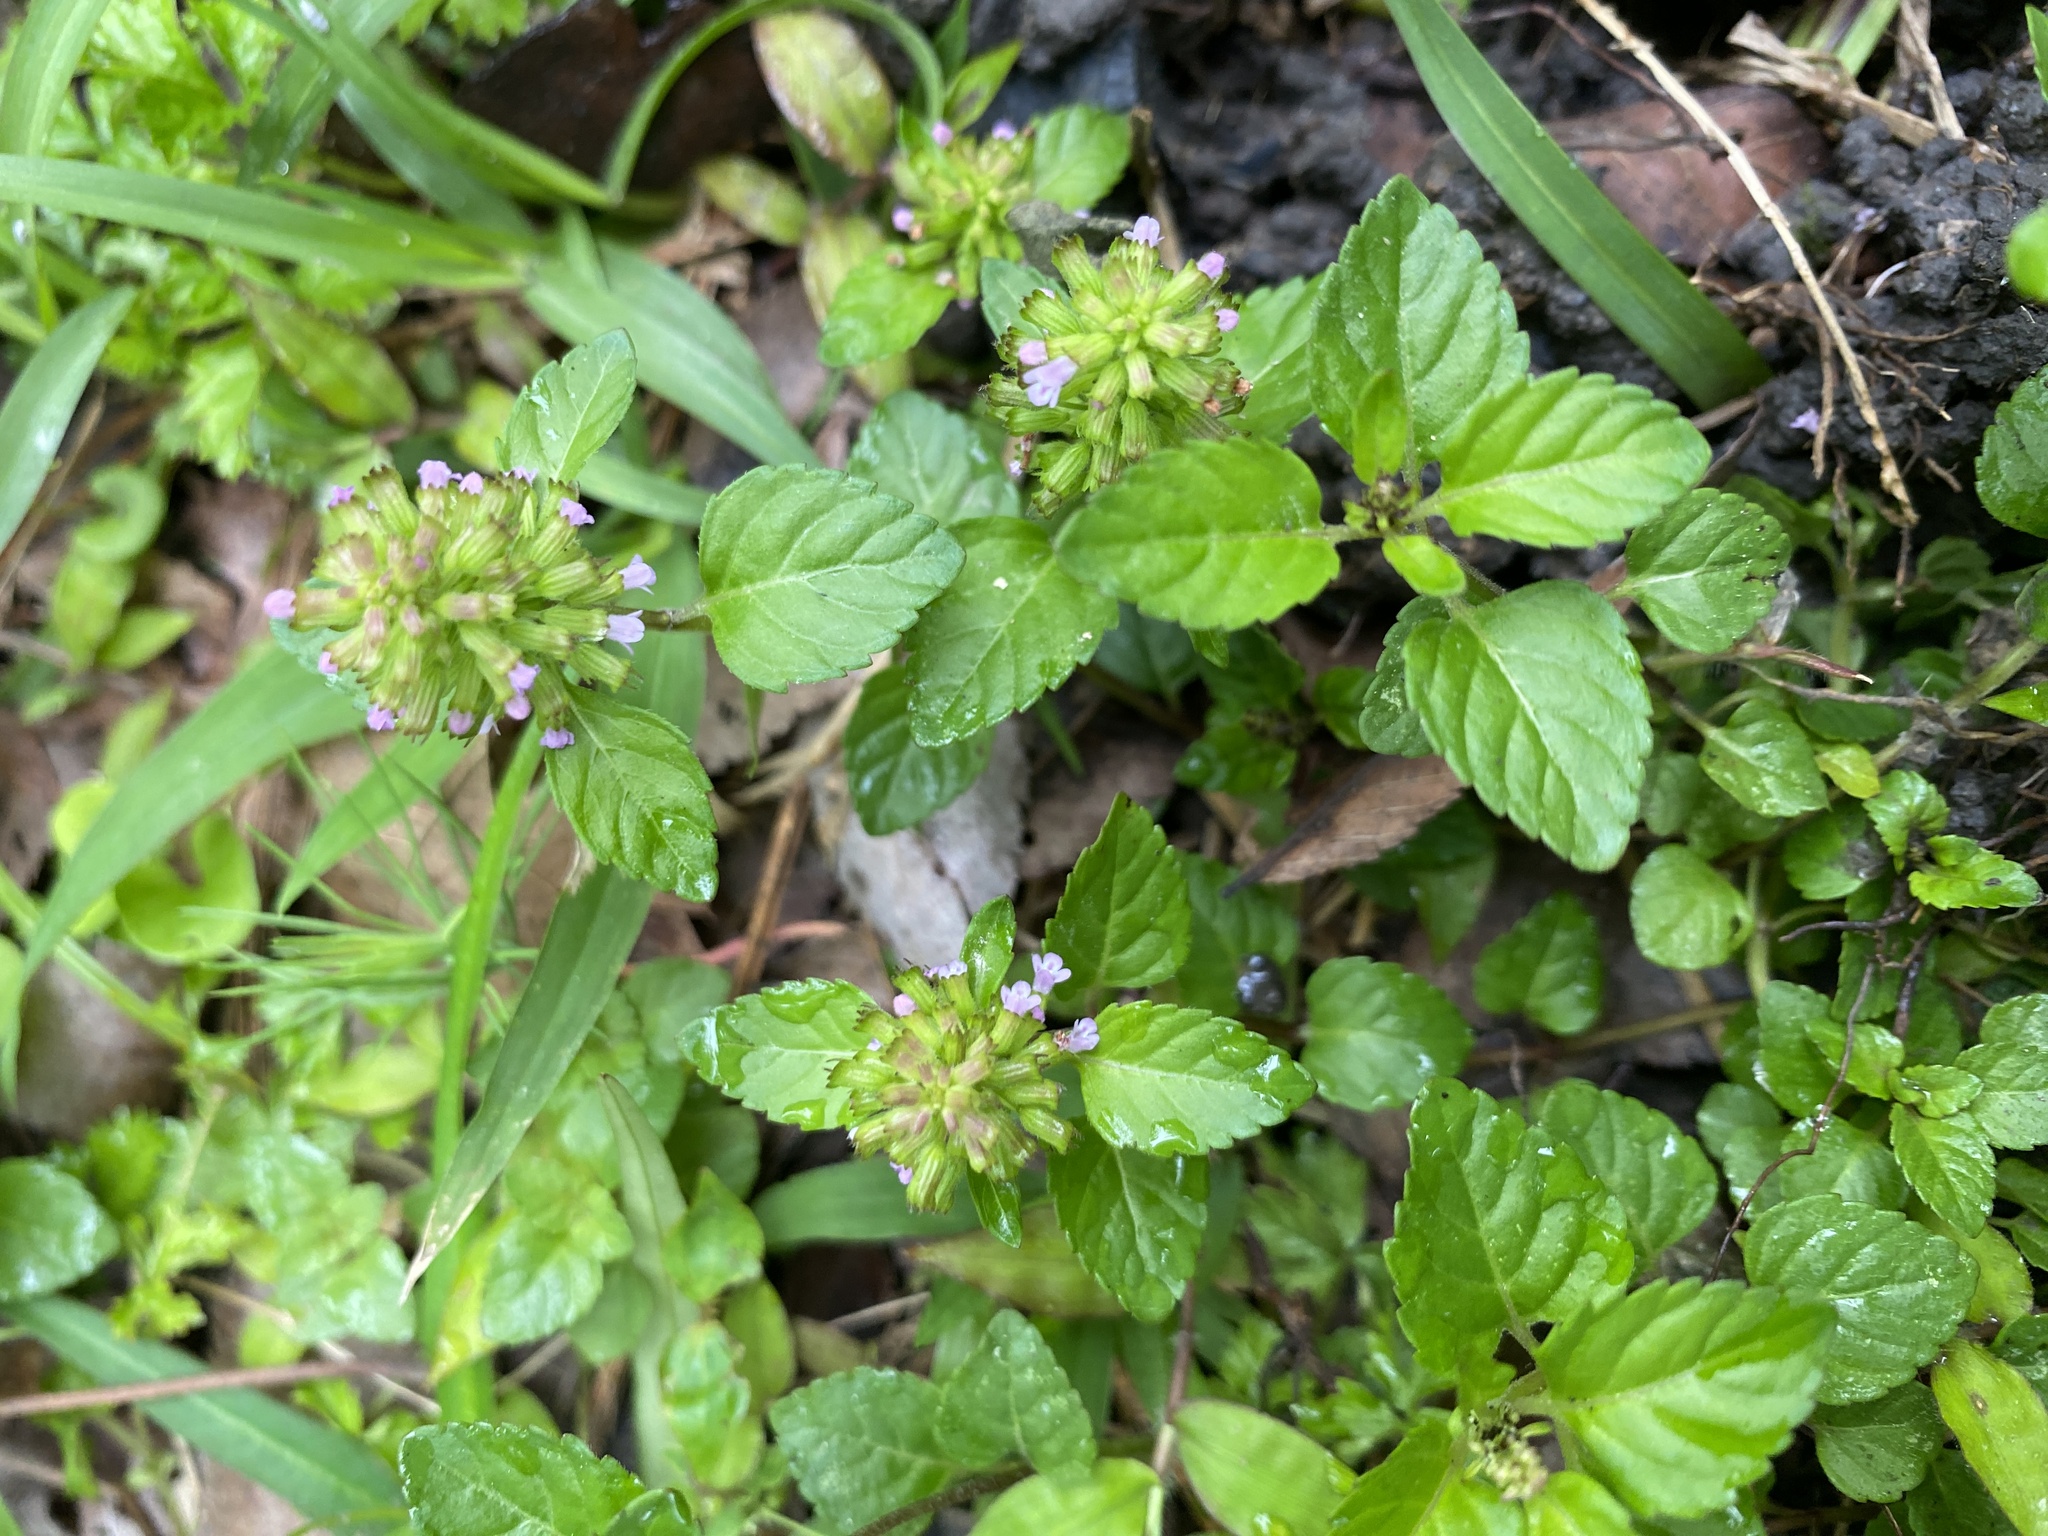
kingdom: Plantae
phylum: Tracheophyta
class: Magnoliopsida
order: Lamiales
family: Lamiaceae
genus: Clinopodium
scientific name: Clinopodium gracile
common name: Slender wild basil
